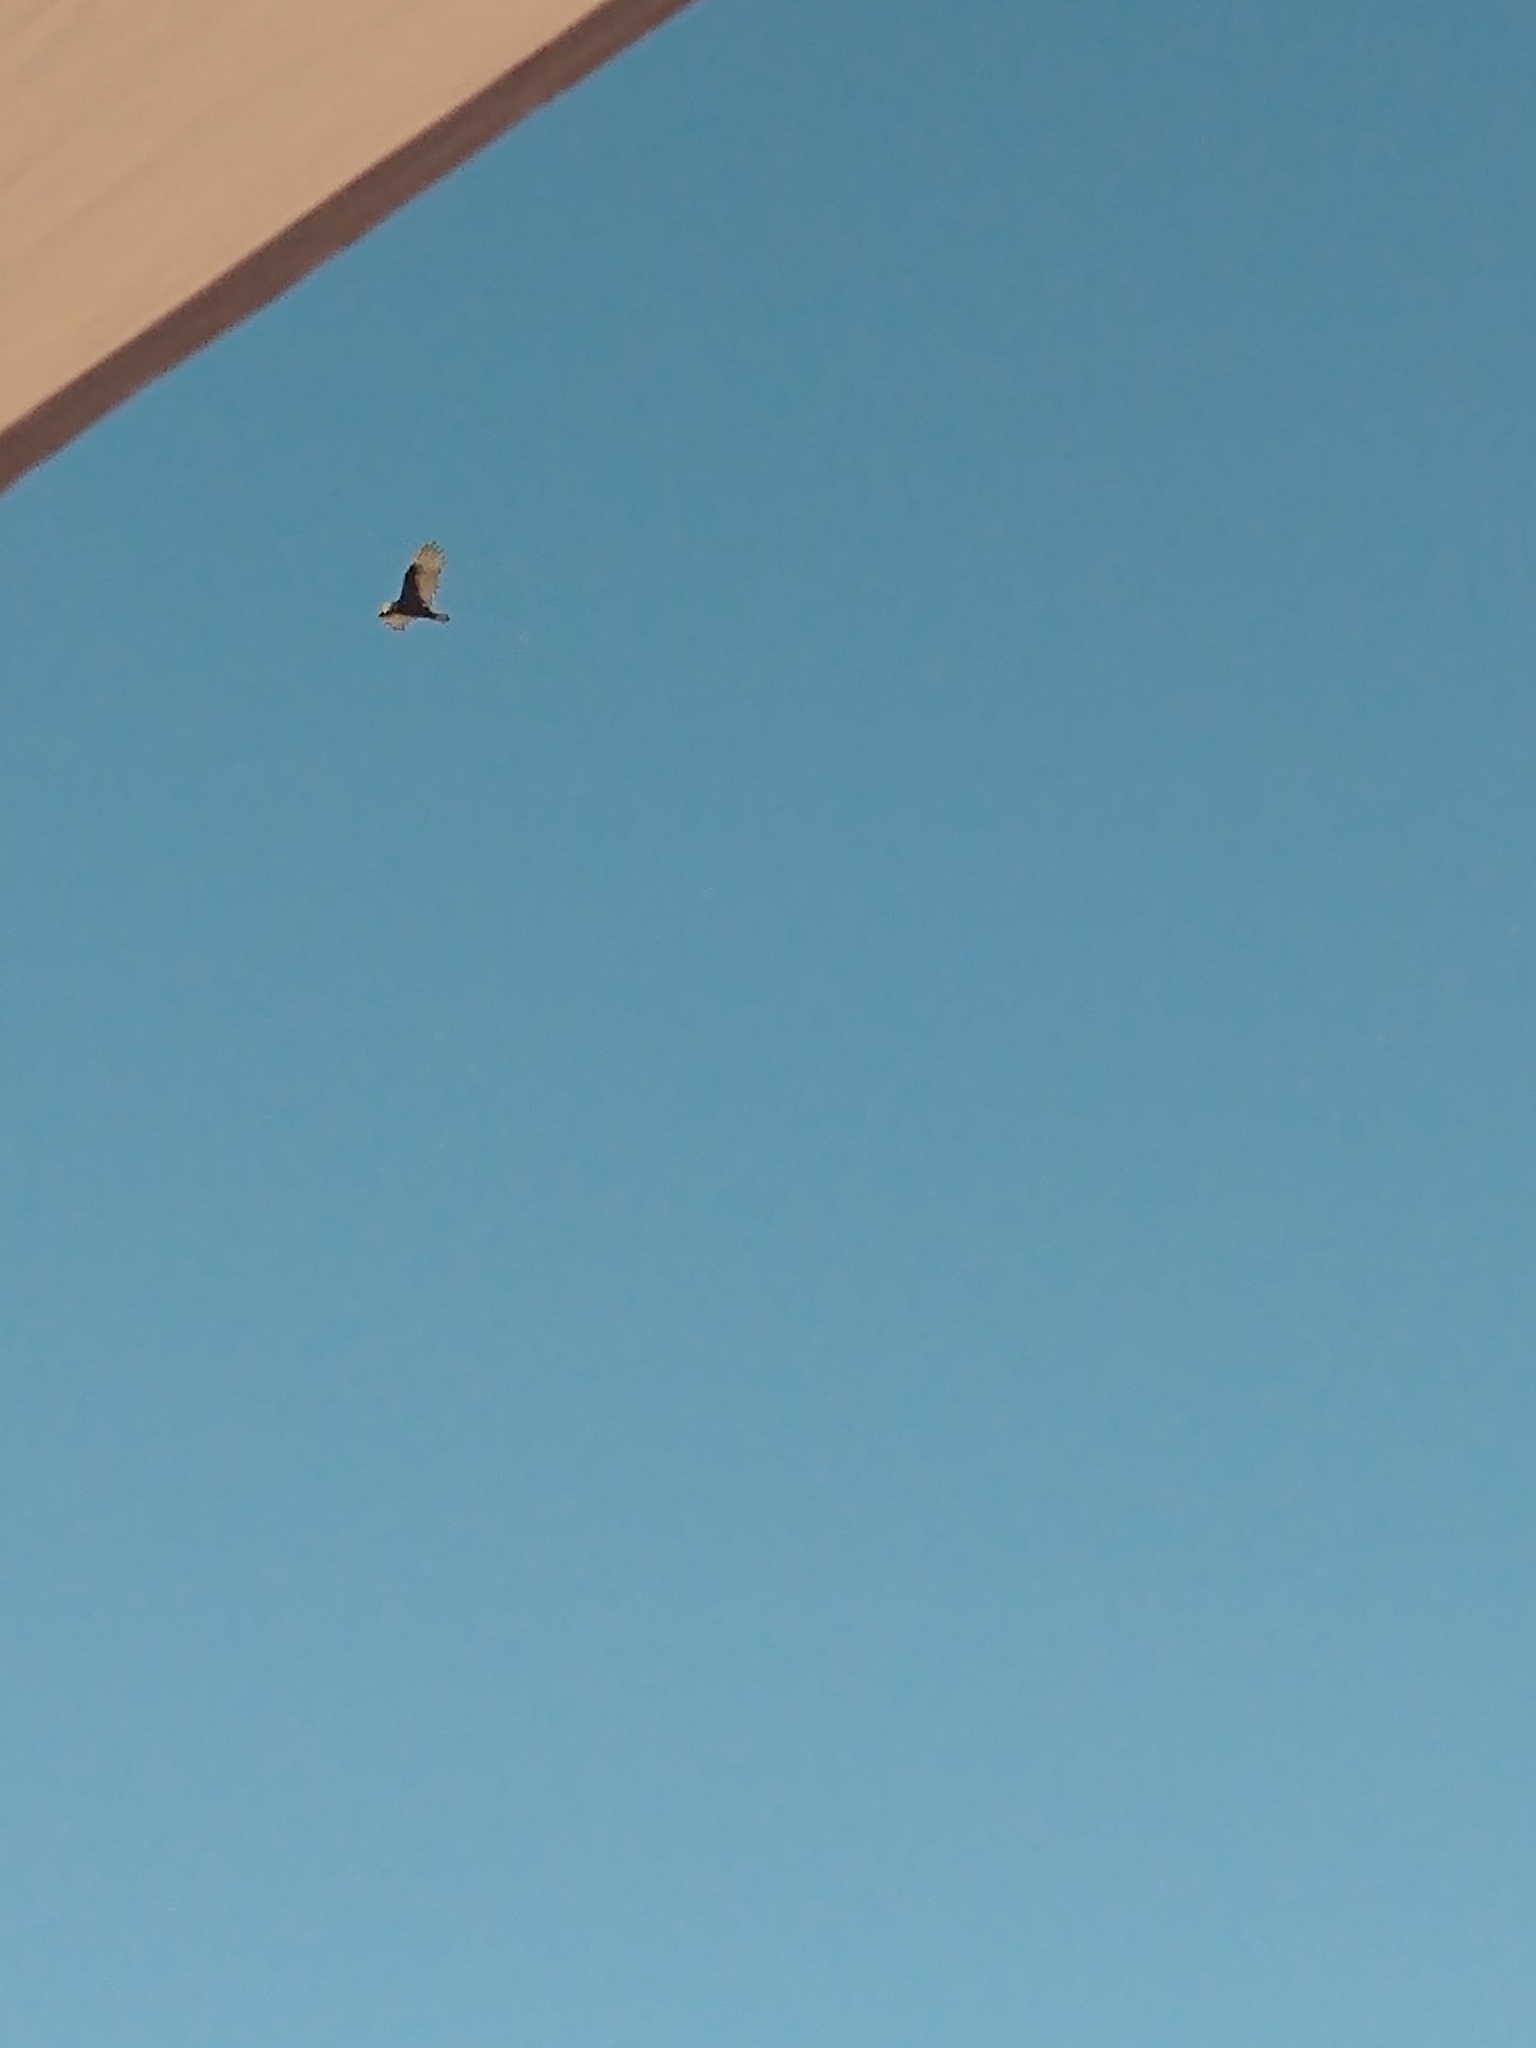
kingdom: Animalia
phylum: Chordata
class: Aves
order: Accipitriformes
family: Cathartidae
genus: Cathartes
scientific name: Cathartes aura
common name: Turkey vulture
